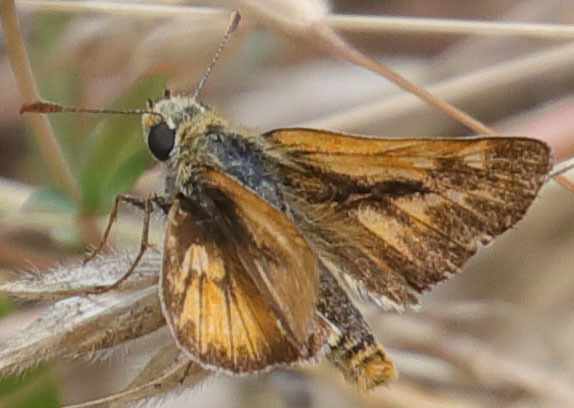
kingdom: Animalia
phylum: Arthropoda
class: Insecta
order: Lepidoptera
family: Hesperiidae
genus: Ochlodes
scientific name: Ochlodes agricola
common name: Rural skipper
